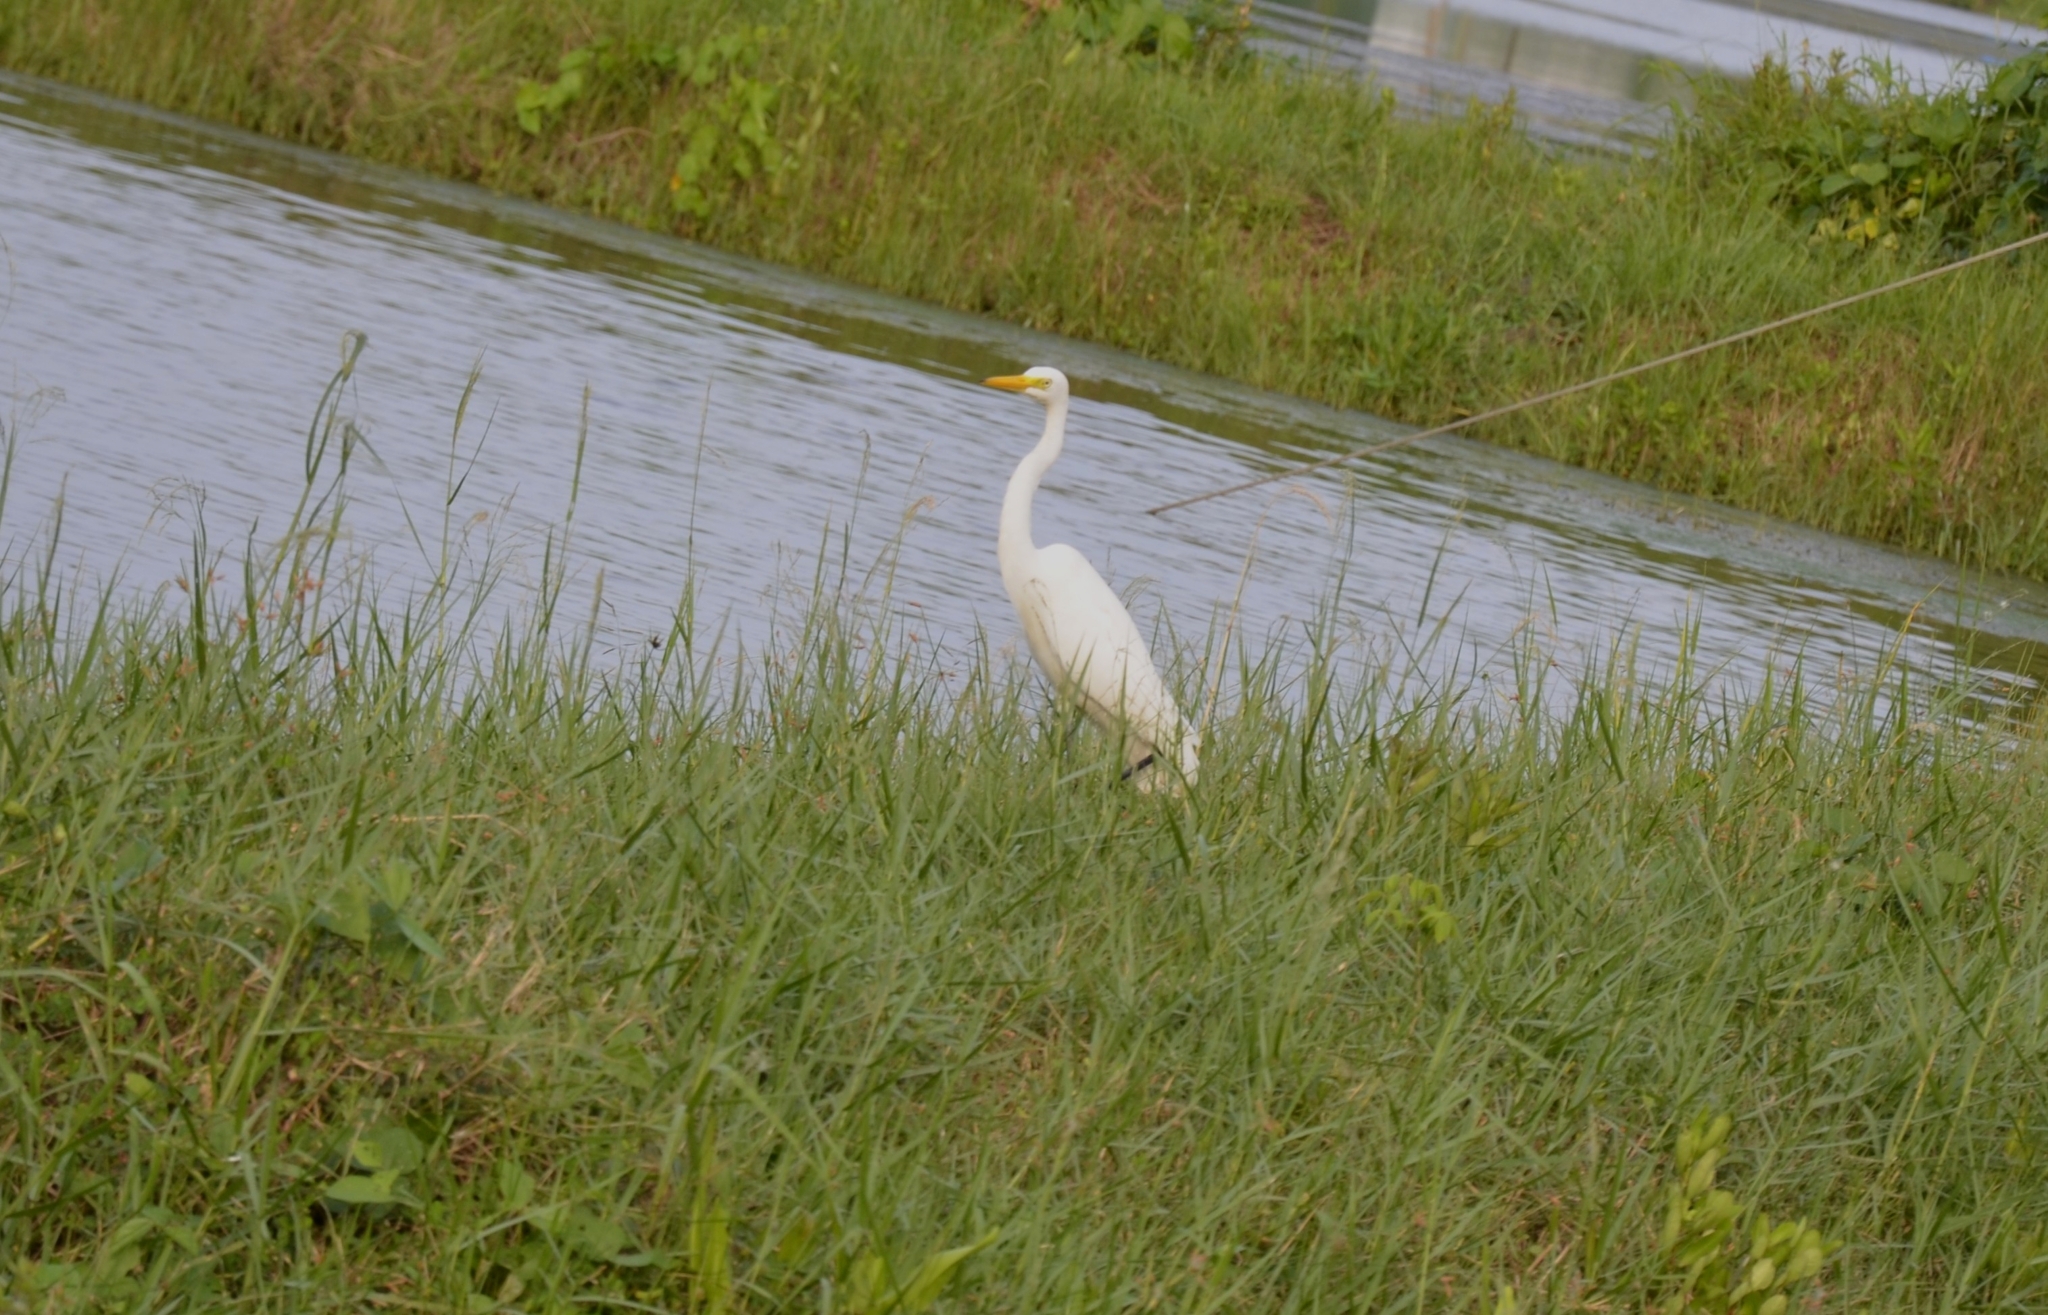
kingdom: Animalia
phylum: Chordata
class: Aves
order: Pelecaniformes
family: Ardeidae
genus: Ardea
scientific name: Ardea alba
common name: Great egret
